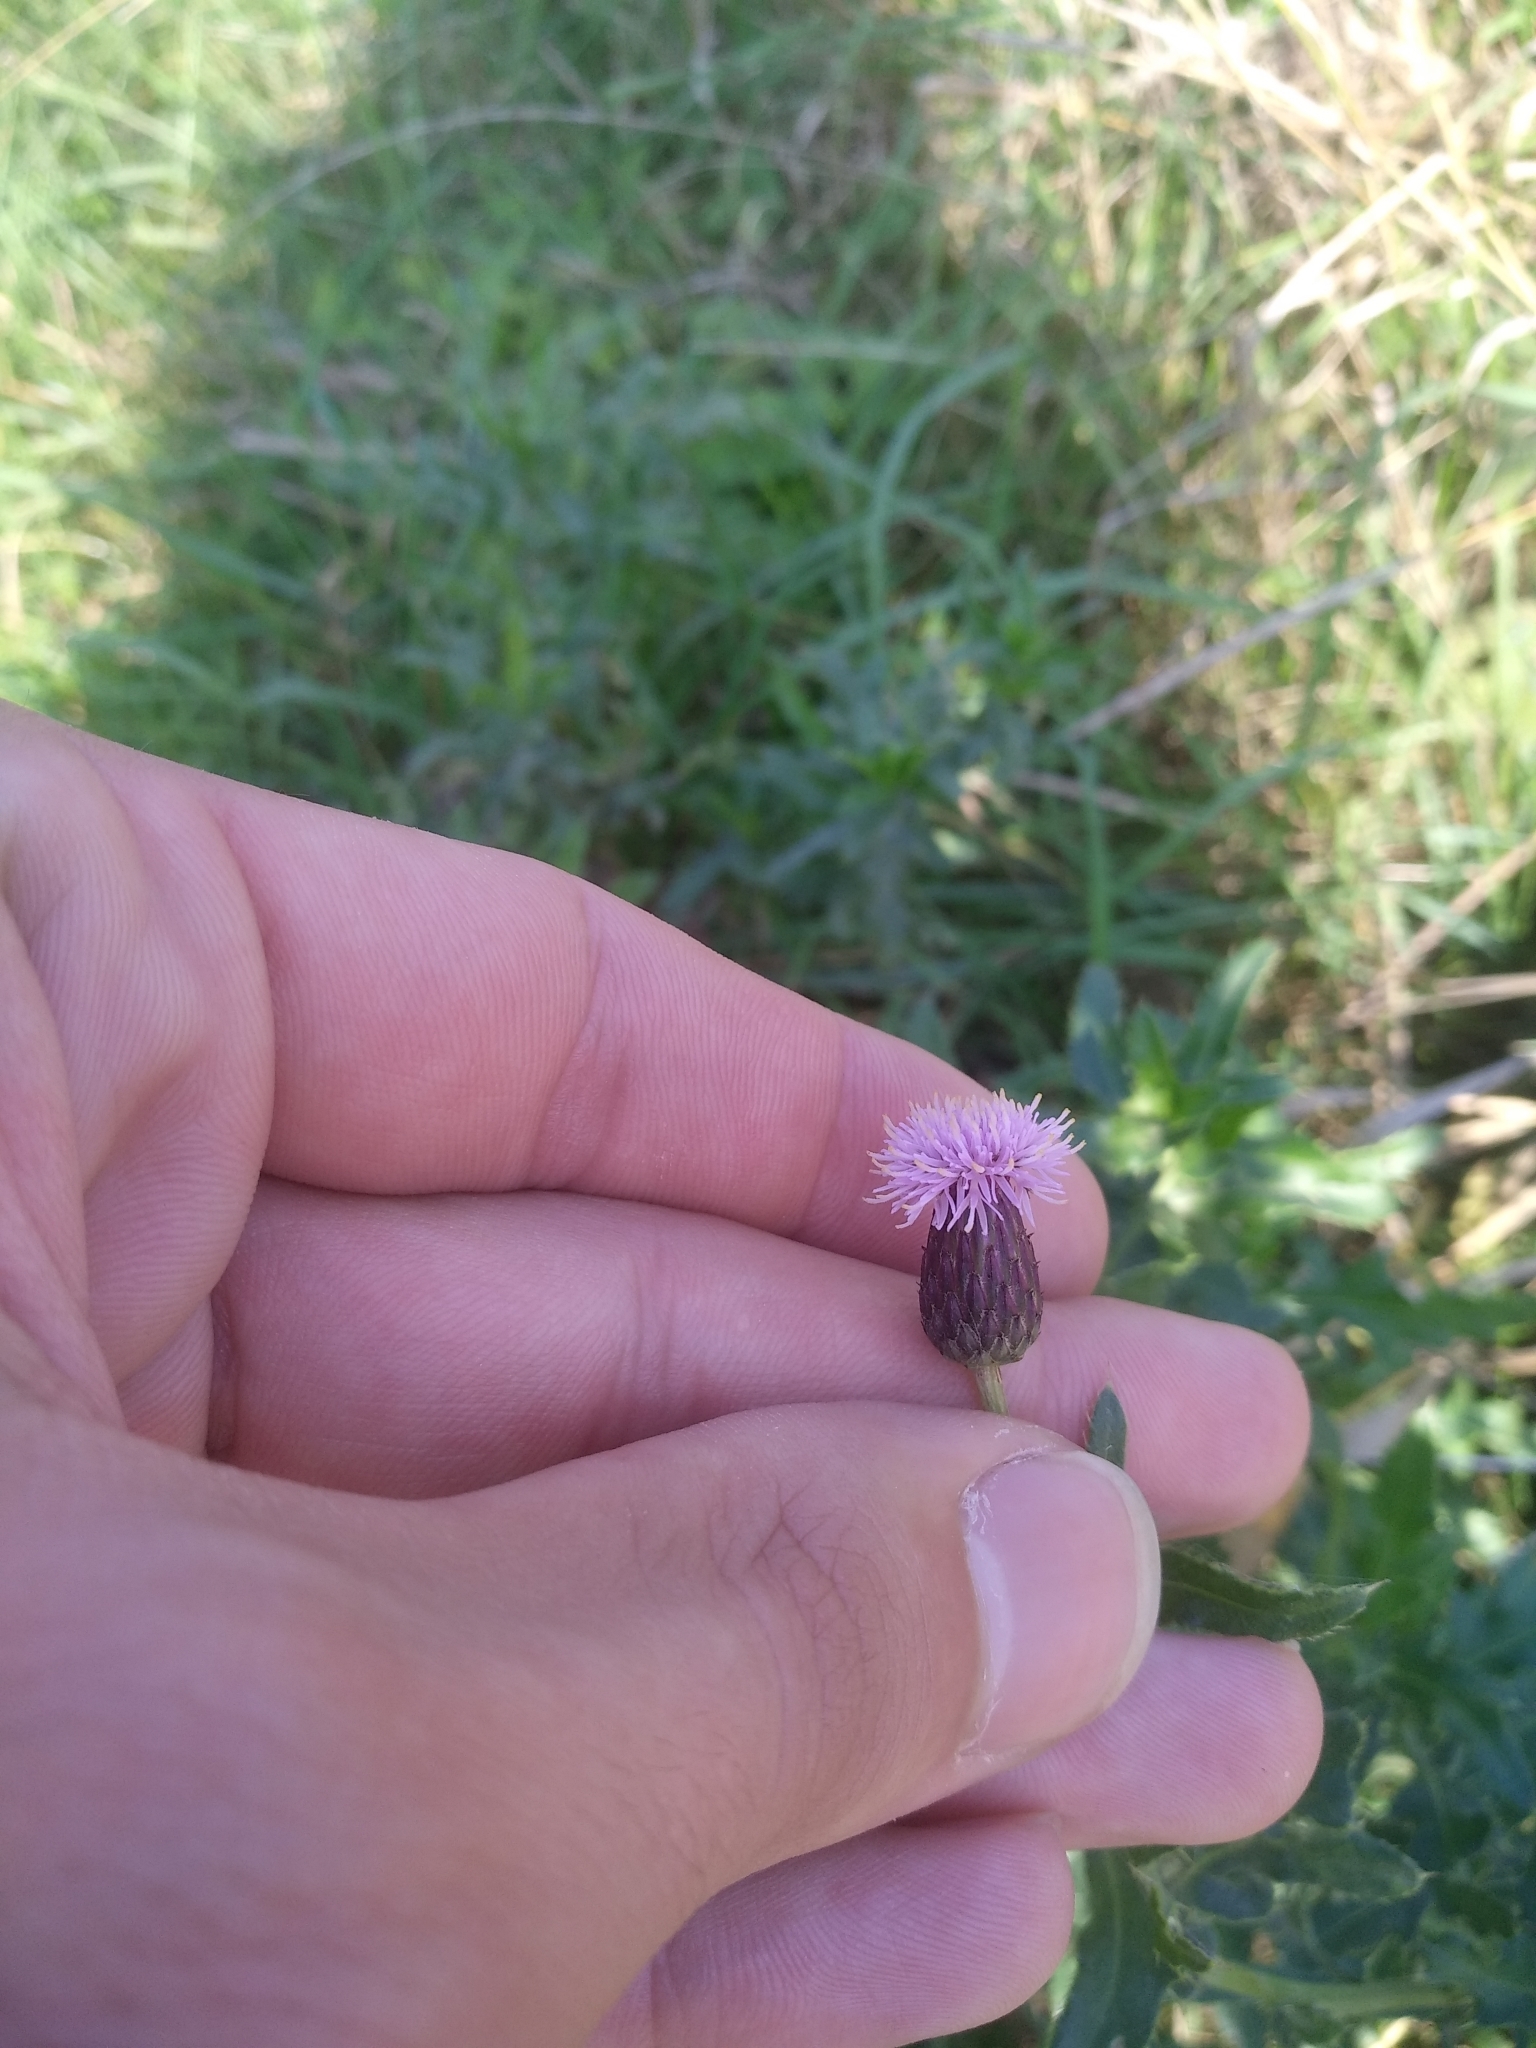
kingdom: Plantae
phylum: Tracheophyta
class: Magnoliopsida
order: Asterales
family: Asteraceae
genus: Cirsium
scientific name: Cirsium arvense
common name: Creeping thistle
